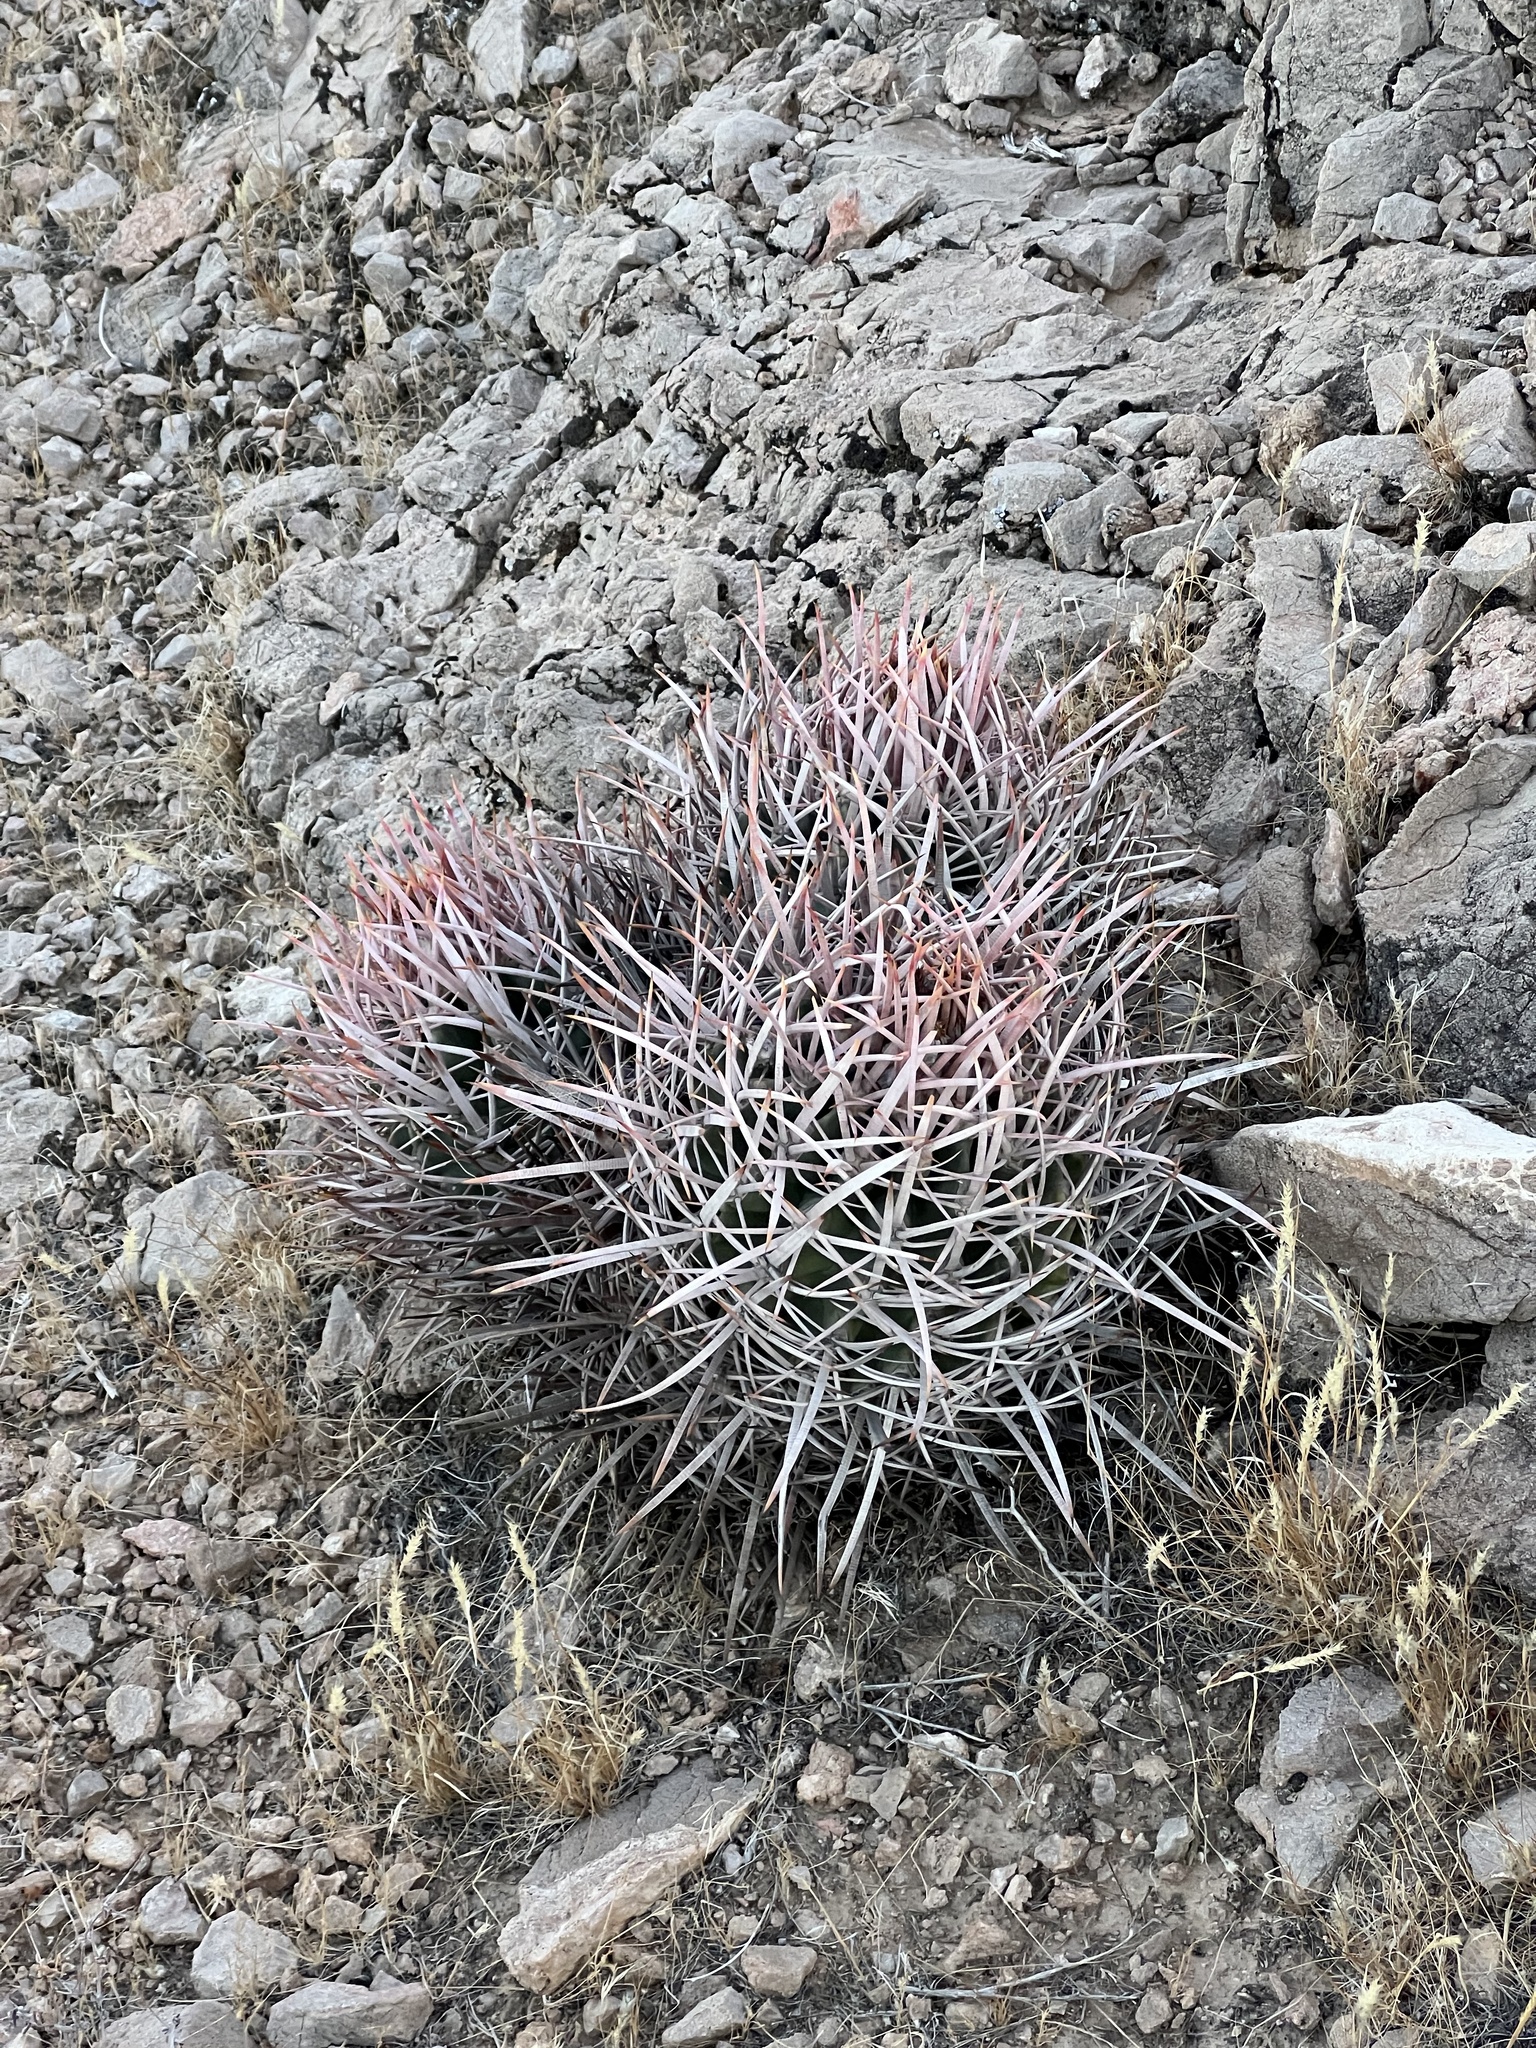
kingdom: Plantae
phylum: Tracheophyta
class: Magnoliopsida
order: Caryophyllales
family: Cactaceae
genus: Echinocactus
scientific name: Echinocactus polycephalus
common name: Cottontop cactus
